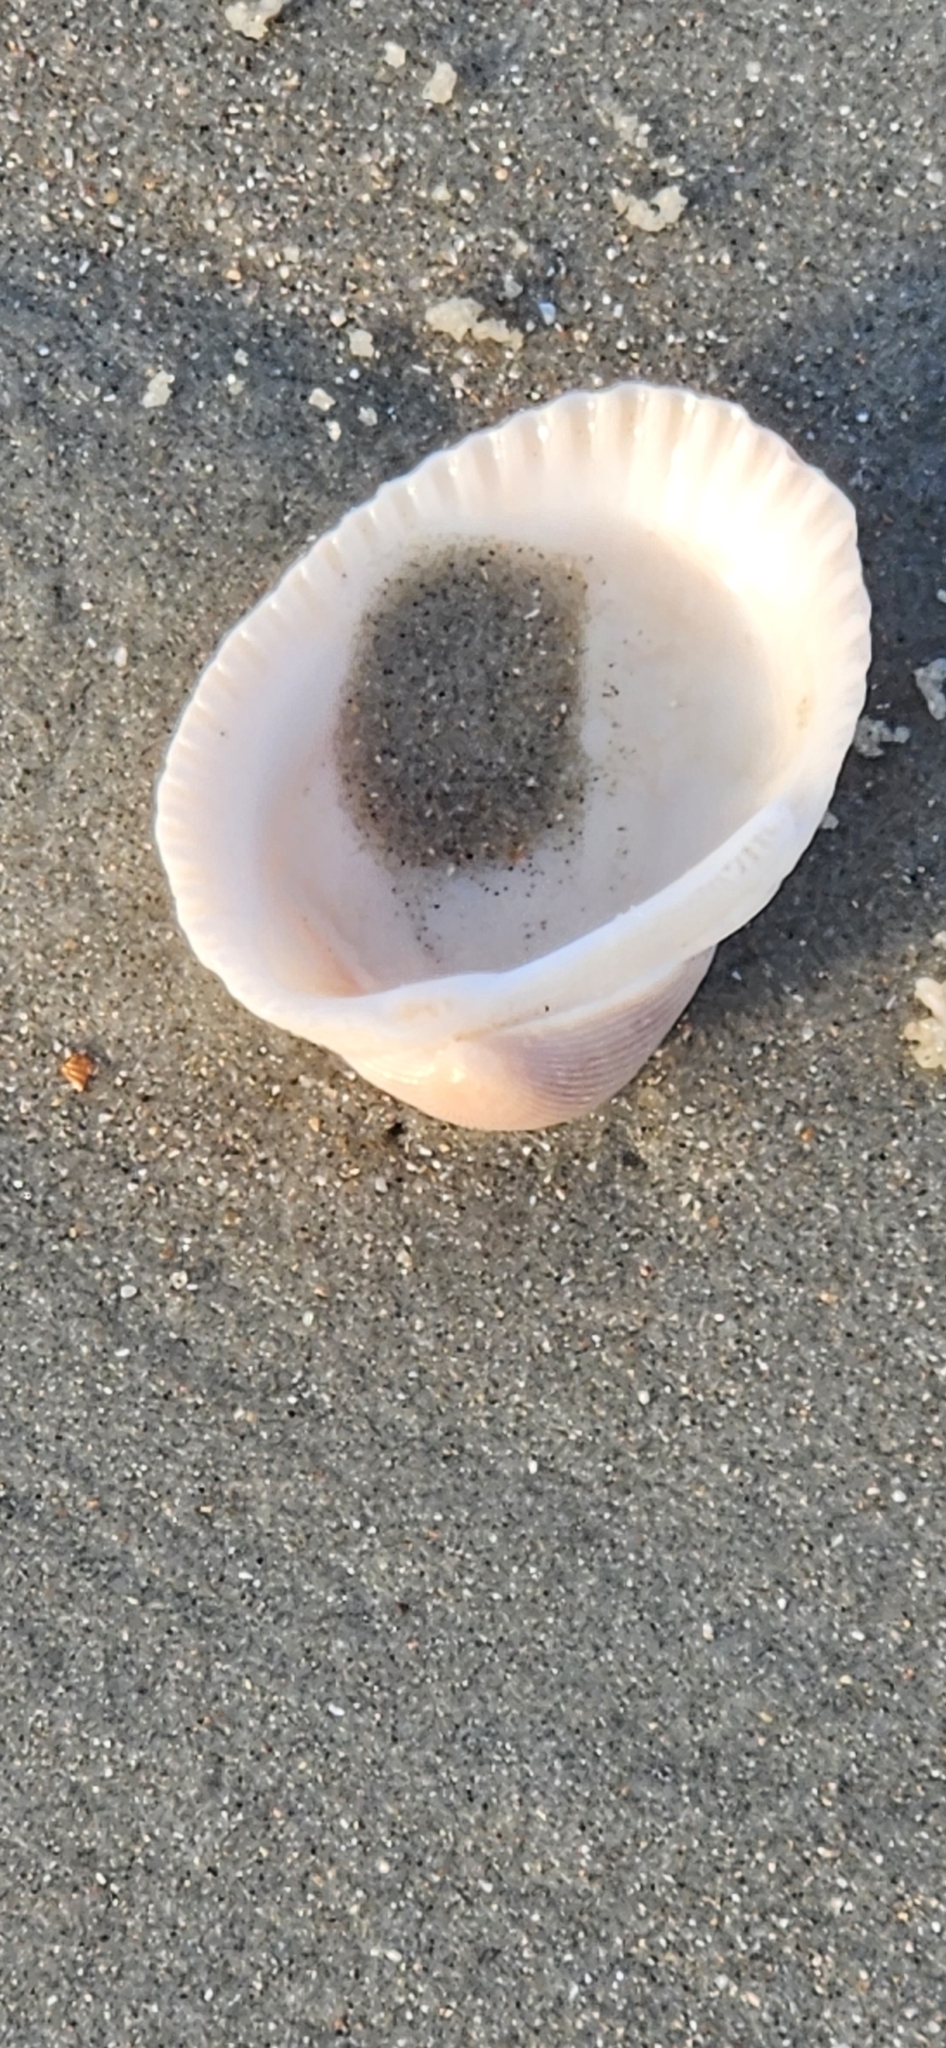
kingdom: Animalia
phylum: Mollusca
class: Bivalvia
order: Arcida
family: Arcidae
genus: Lunarca
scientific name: Lunarca ovalis
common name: Blood ark
